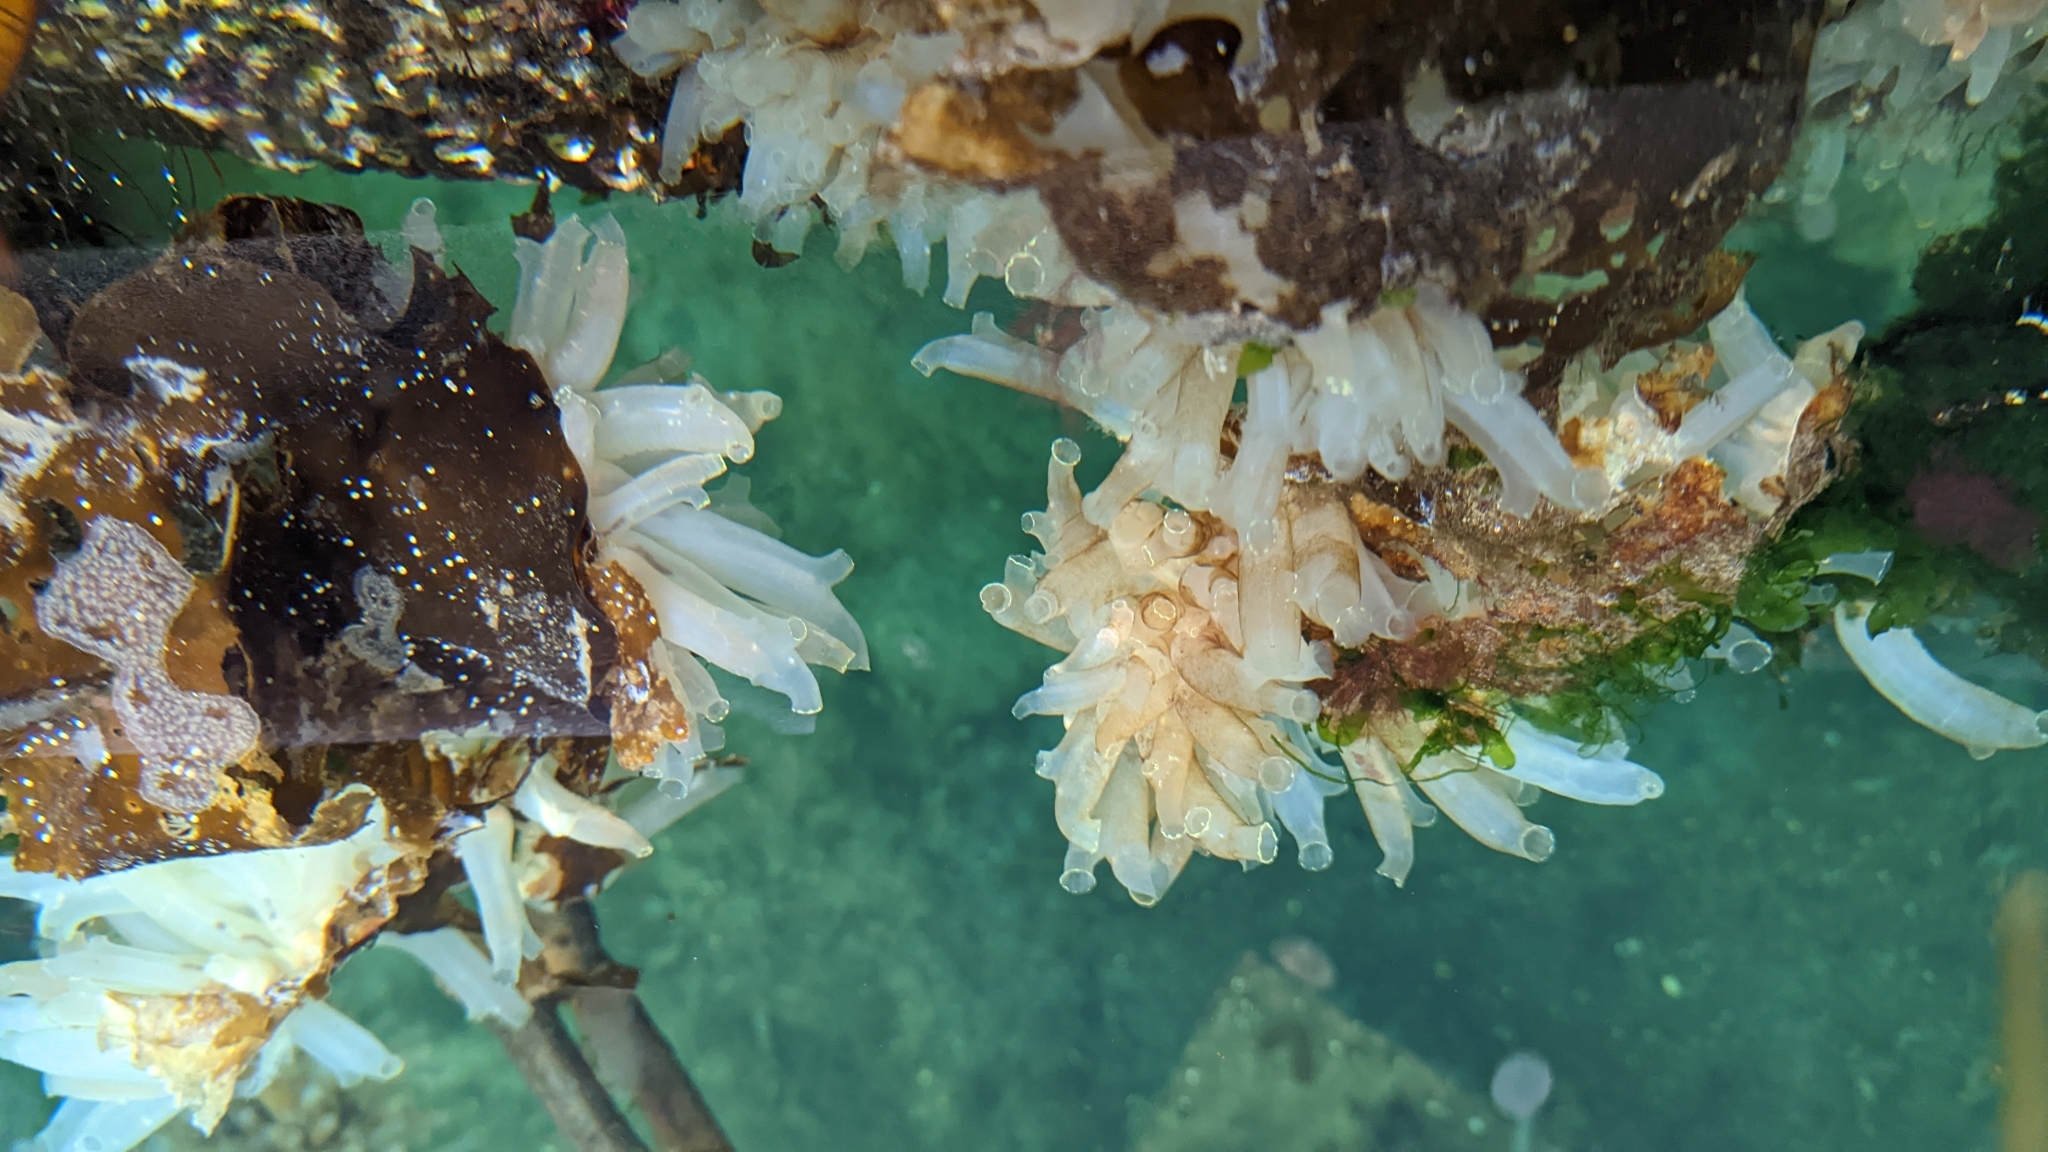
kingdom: Animalia
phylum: Chordata
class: Ascidiacea
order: Phlebobranchia
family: Cionidae
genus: Ciona
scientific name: Ciona intestinalis
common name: Vase tunicate
